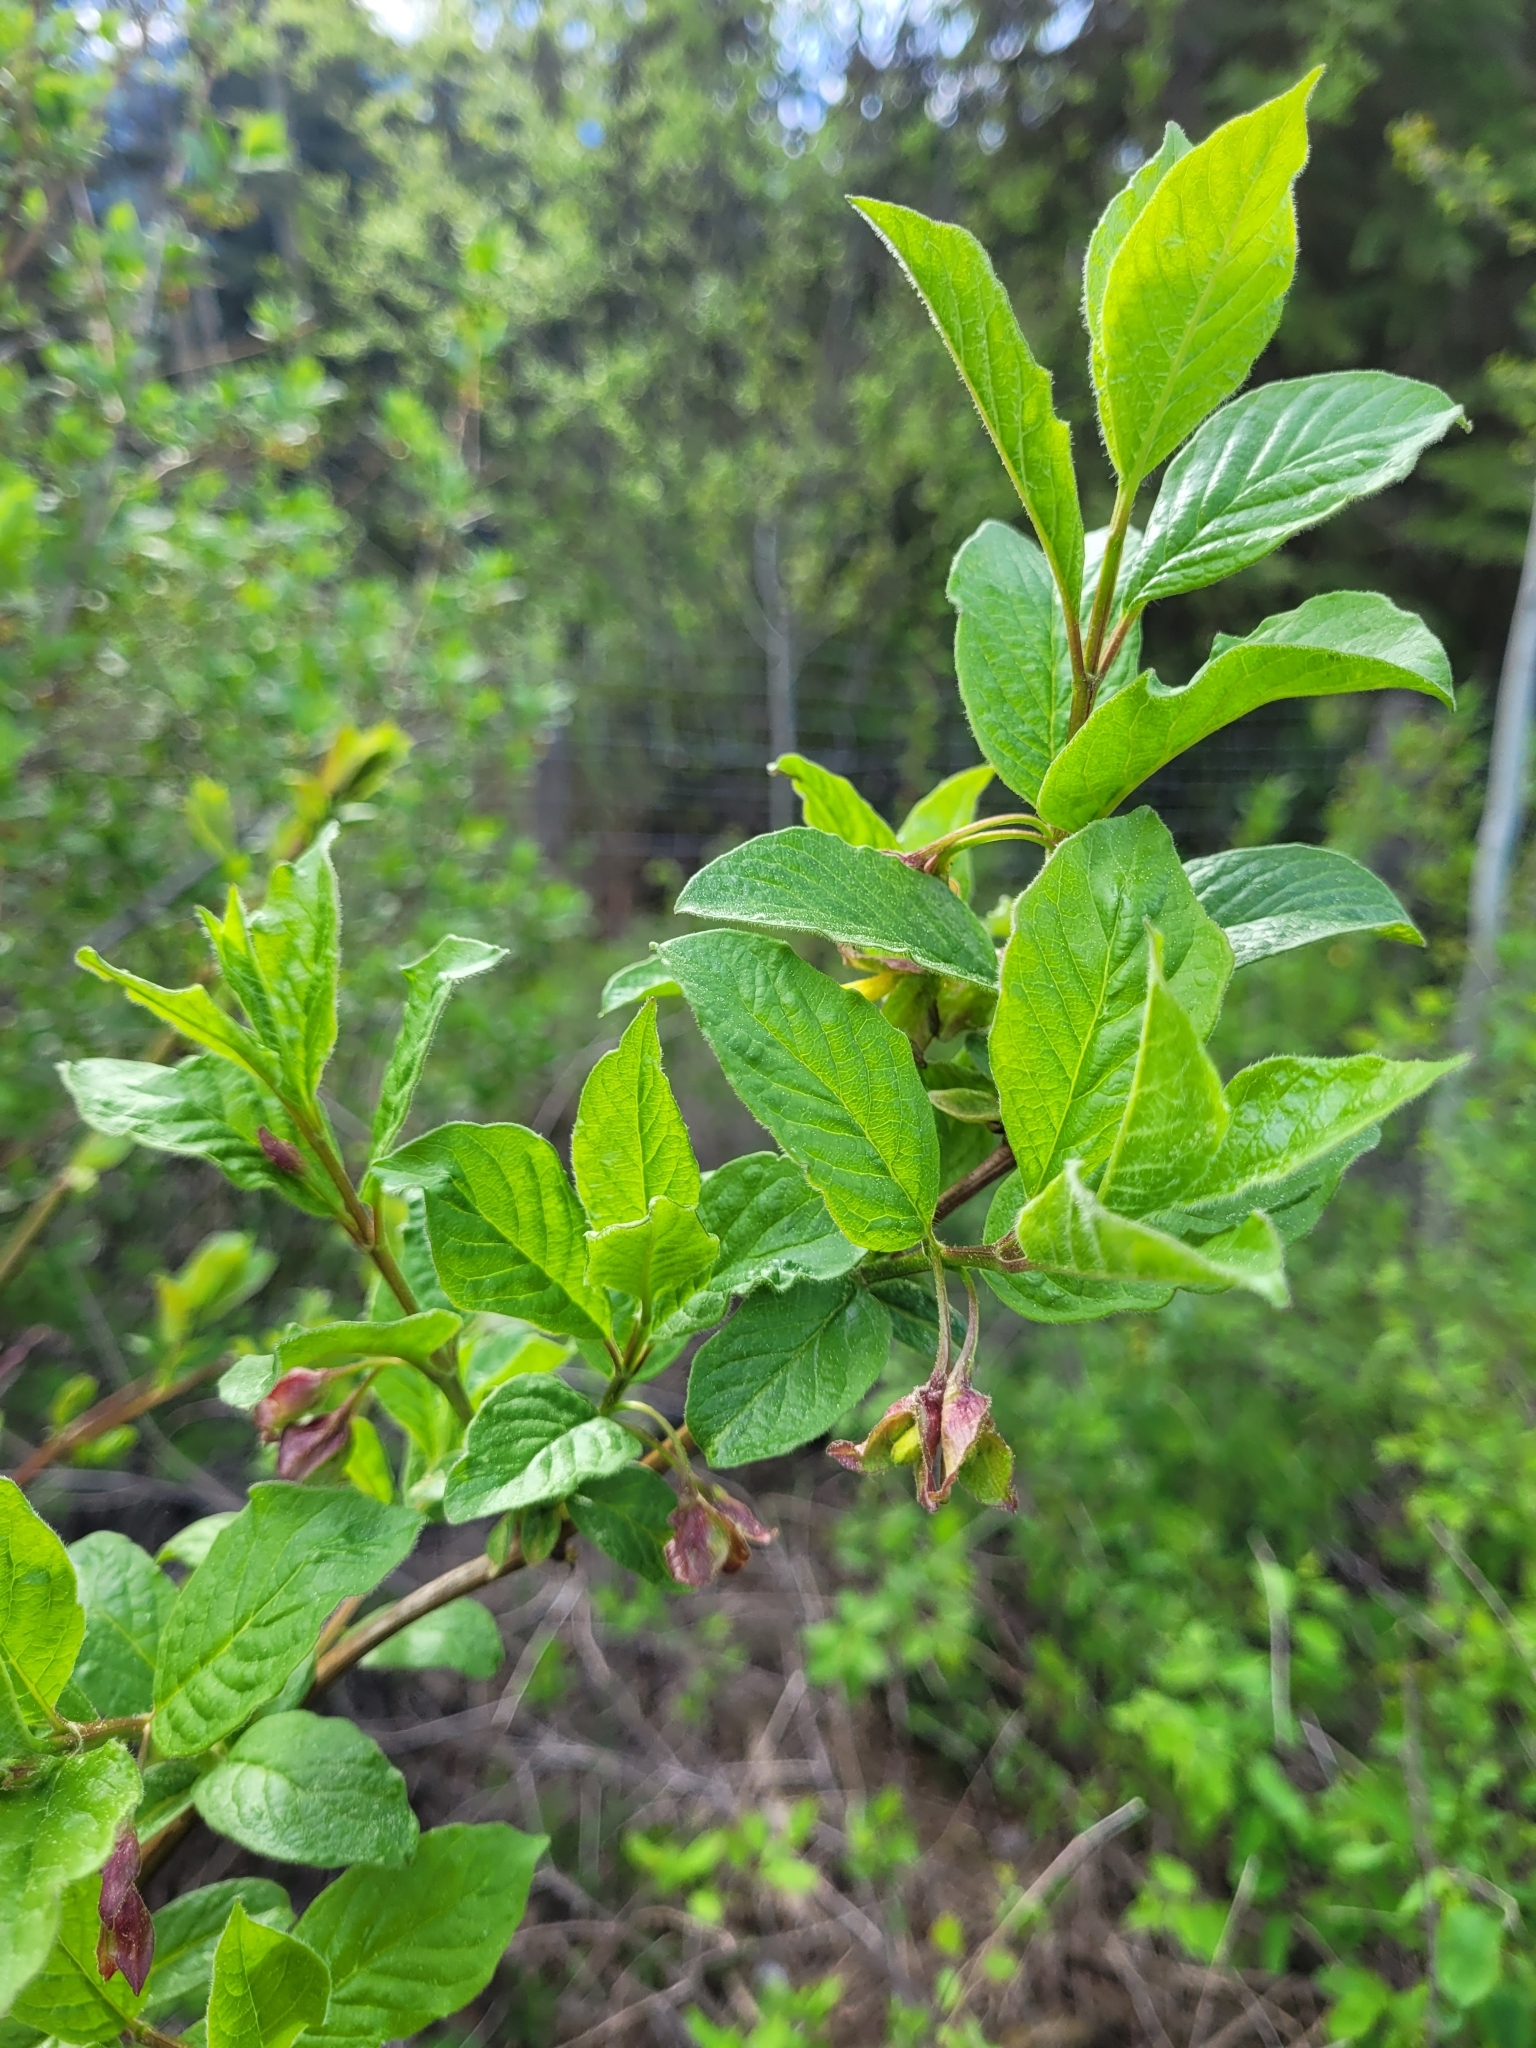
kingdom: Plantae
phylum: Tracheophyta
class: Magnoliopsida
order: Dipsacales
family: Caprifoliaceae
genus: Lonicera
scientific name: Lonicera involucrata
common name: Californian honeysuckle
